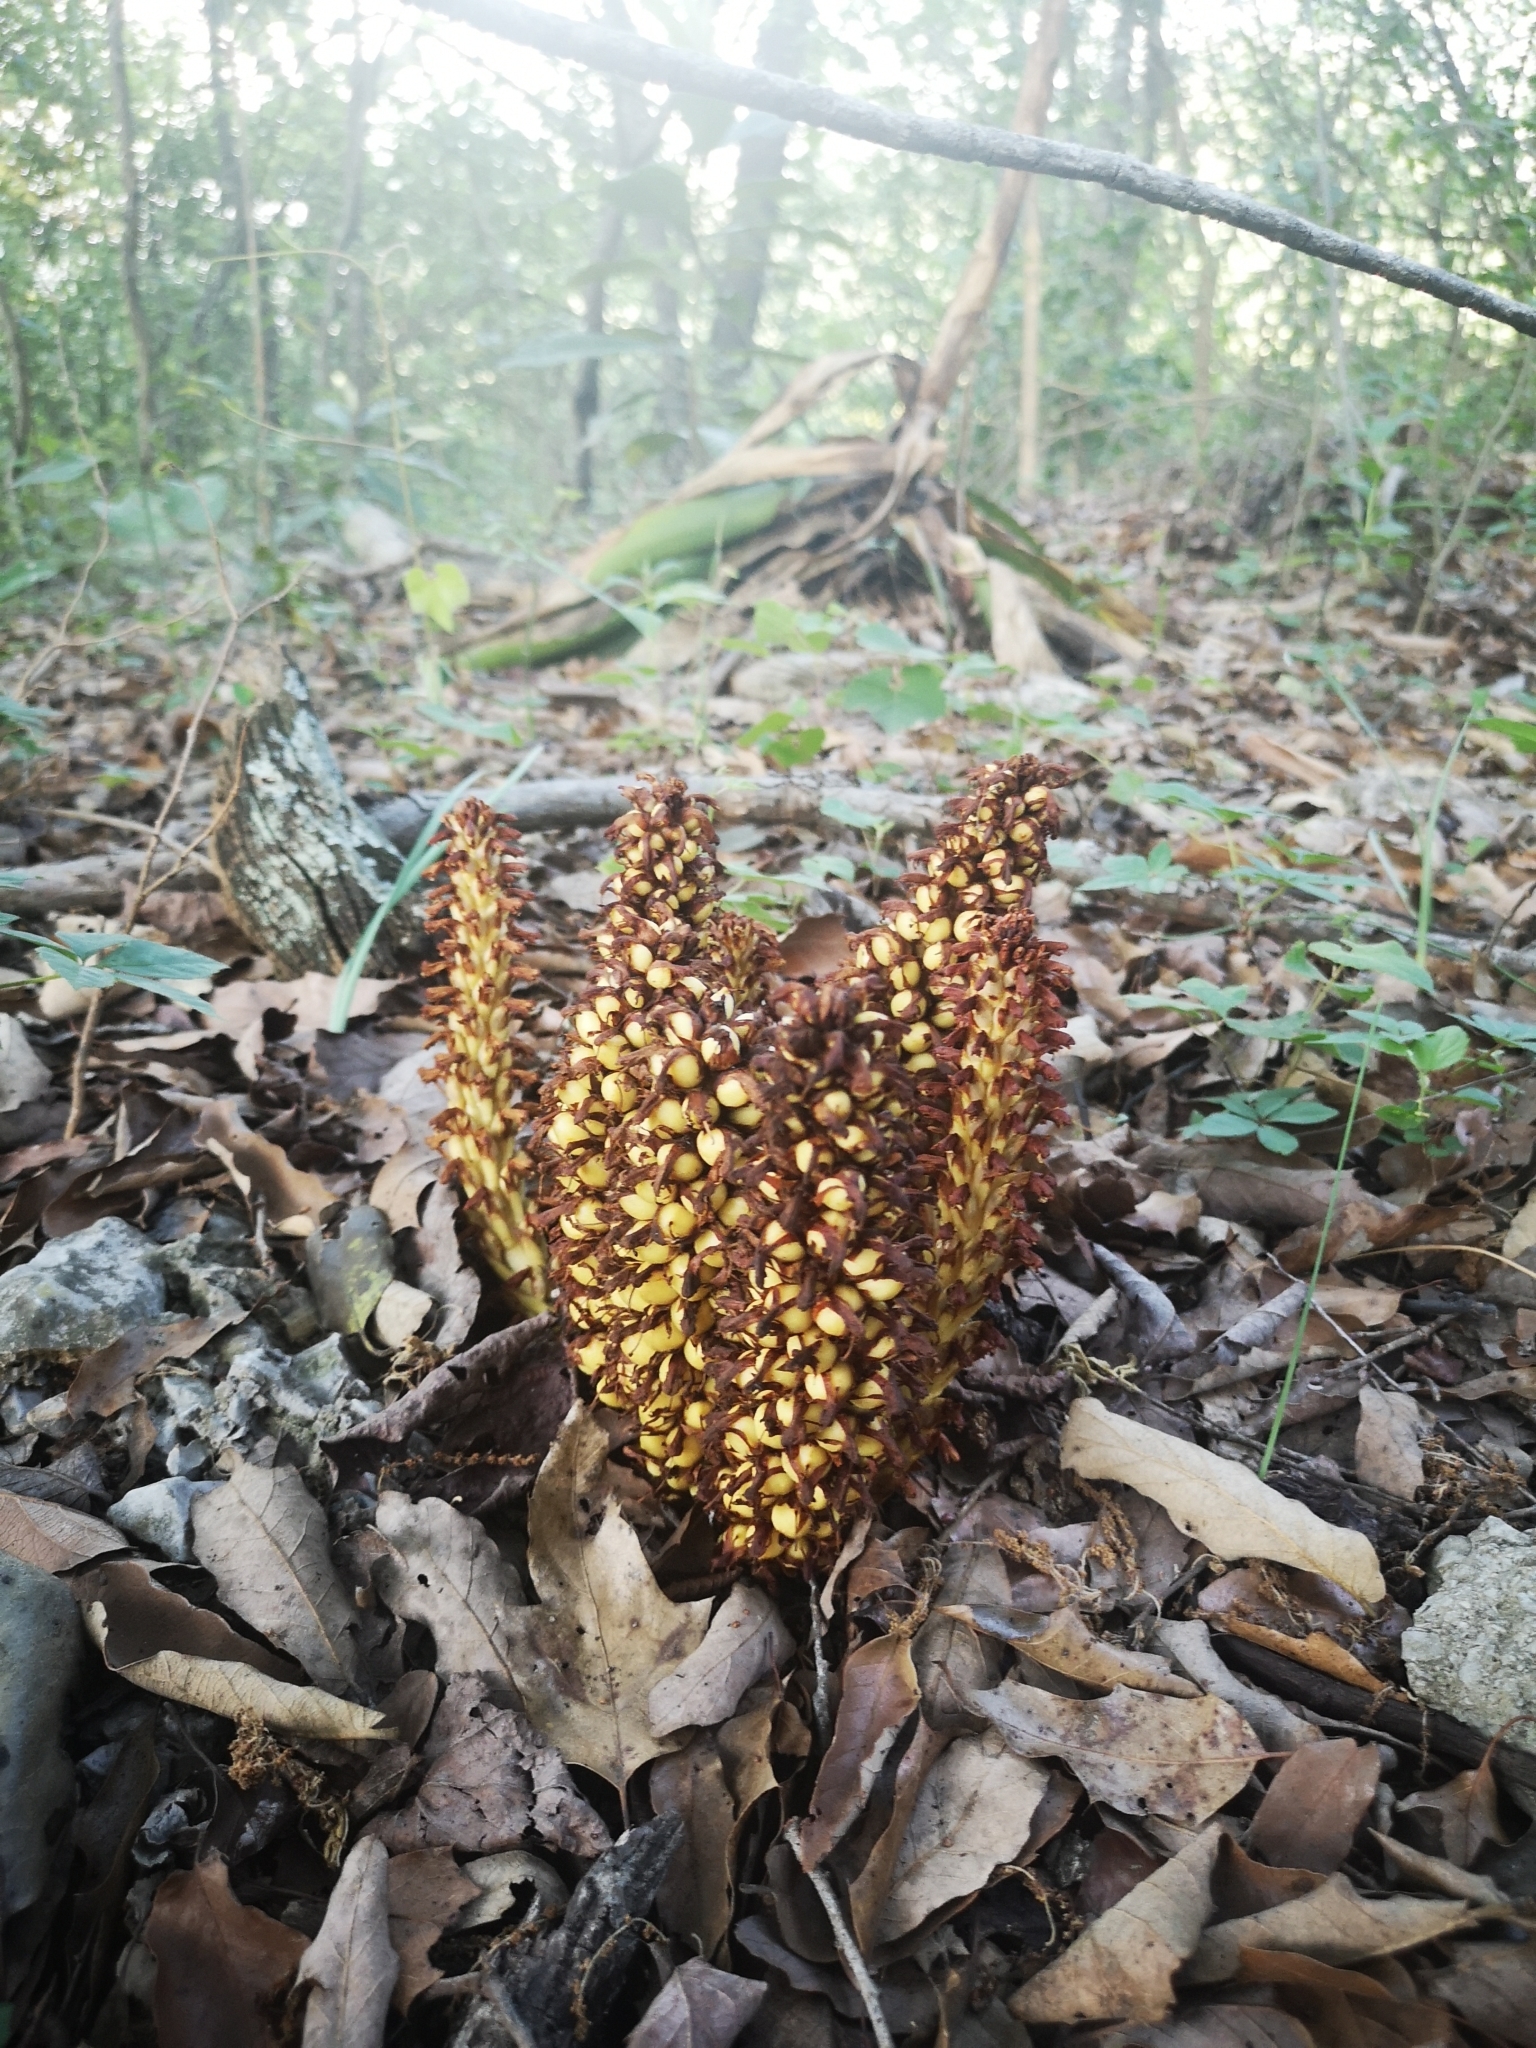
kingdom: Plantae
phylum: Tracheophyta
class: Magnoliopsida
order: Lamiales
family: Orobanchaceae
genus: Conopholis
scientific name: Conopholis alpina
